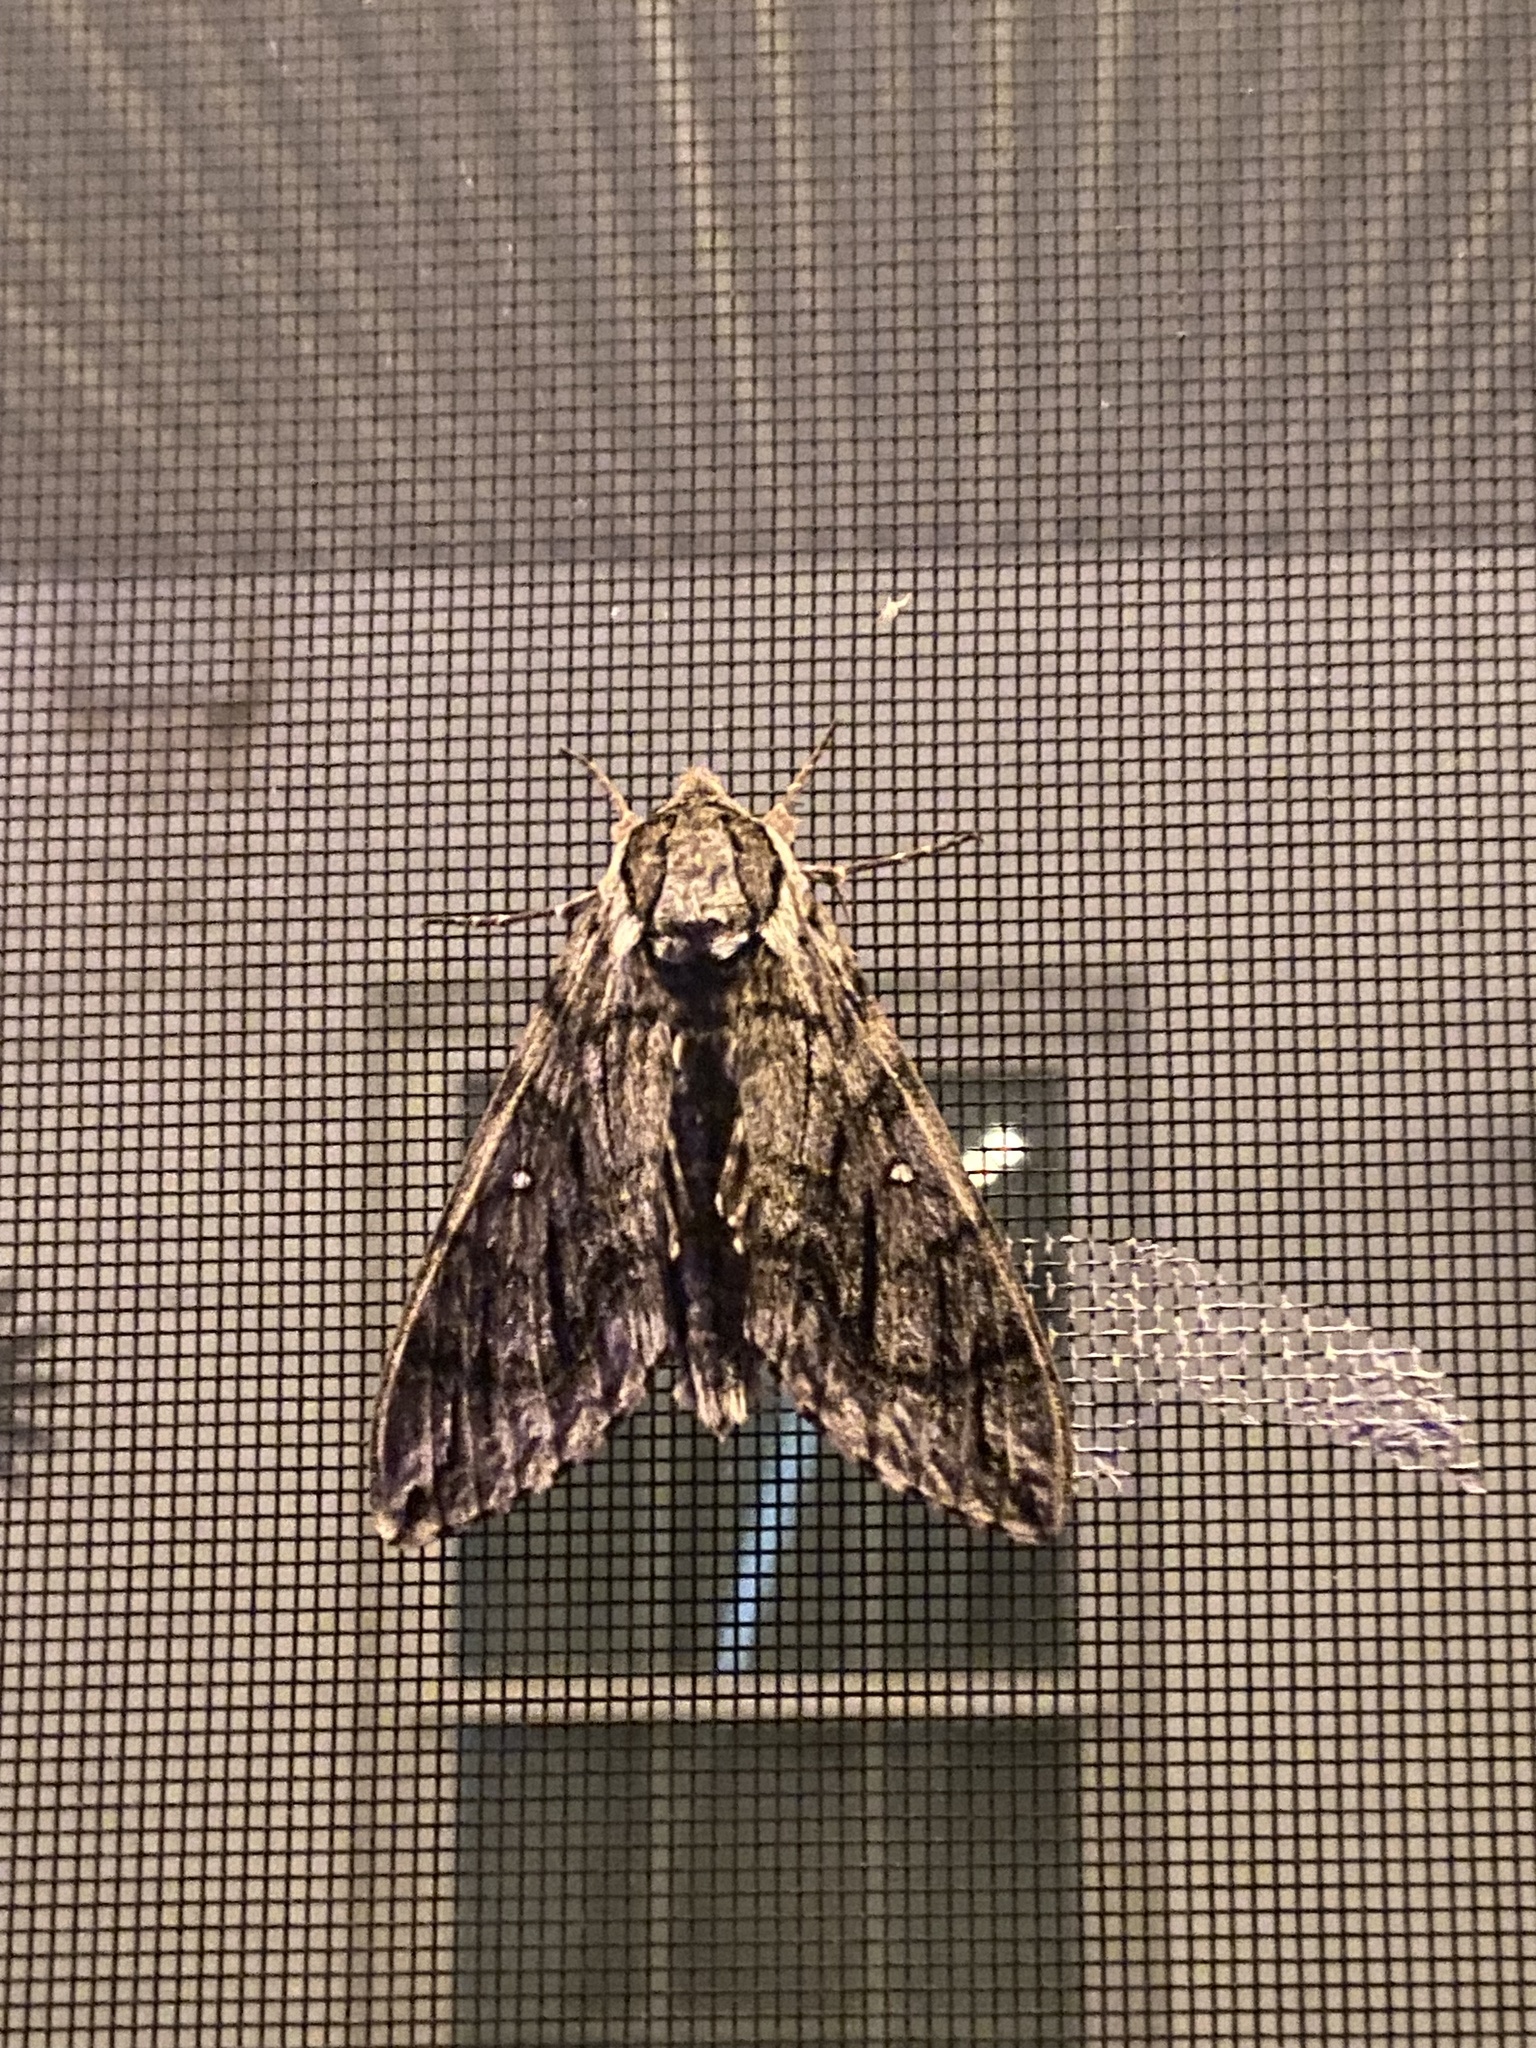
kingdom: Animalia
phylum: Arthropoda
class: Insecta
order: Lepidoptera
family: Sphingidae
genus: Ceratomia
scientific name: Ceratomia undulosa
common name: Waved sphinx
